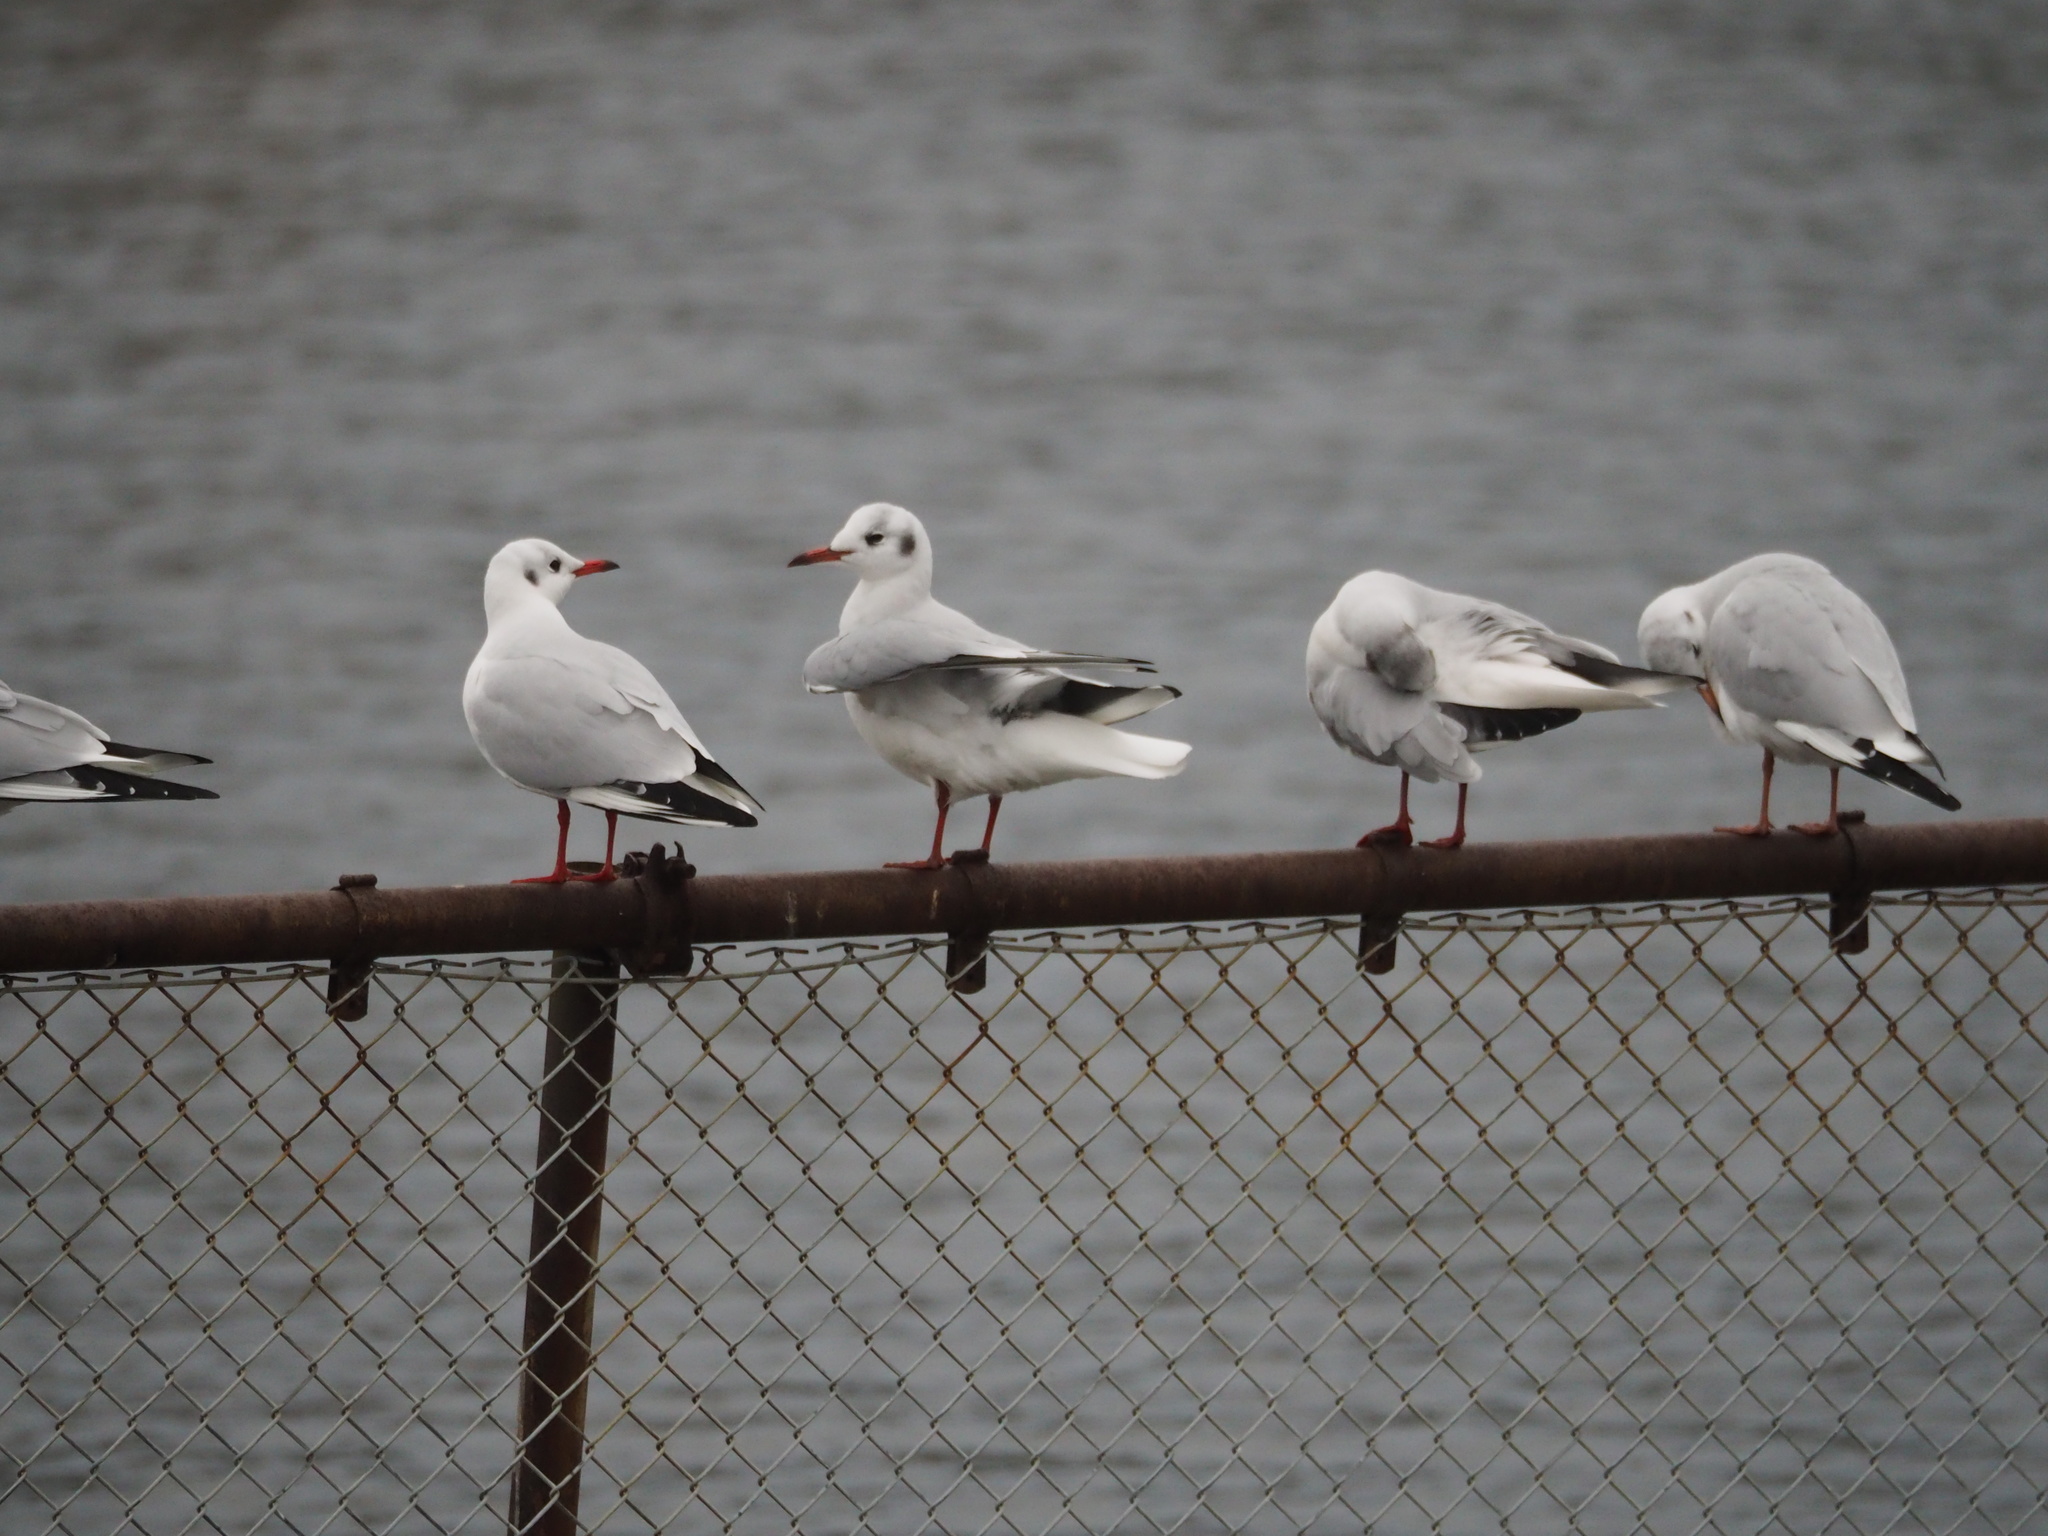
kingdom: Animalia
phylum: Chordata
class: Aves
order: Charadriiformes
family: Laridae
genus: Chroicocephalus
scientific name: Chroicocephalus ridibundus
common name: Black-headed gull
